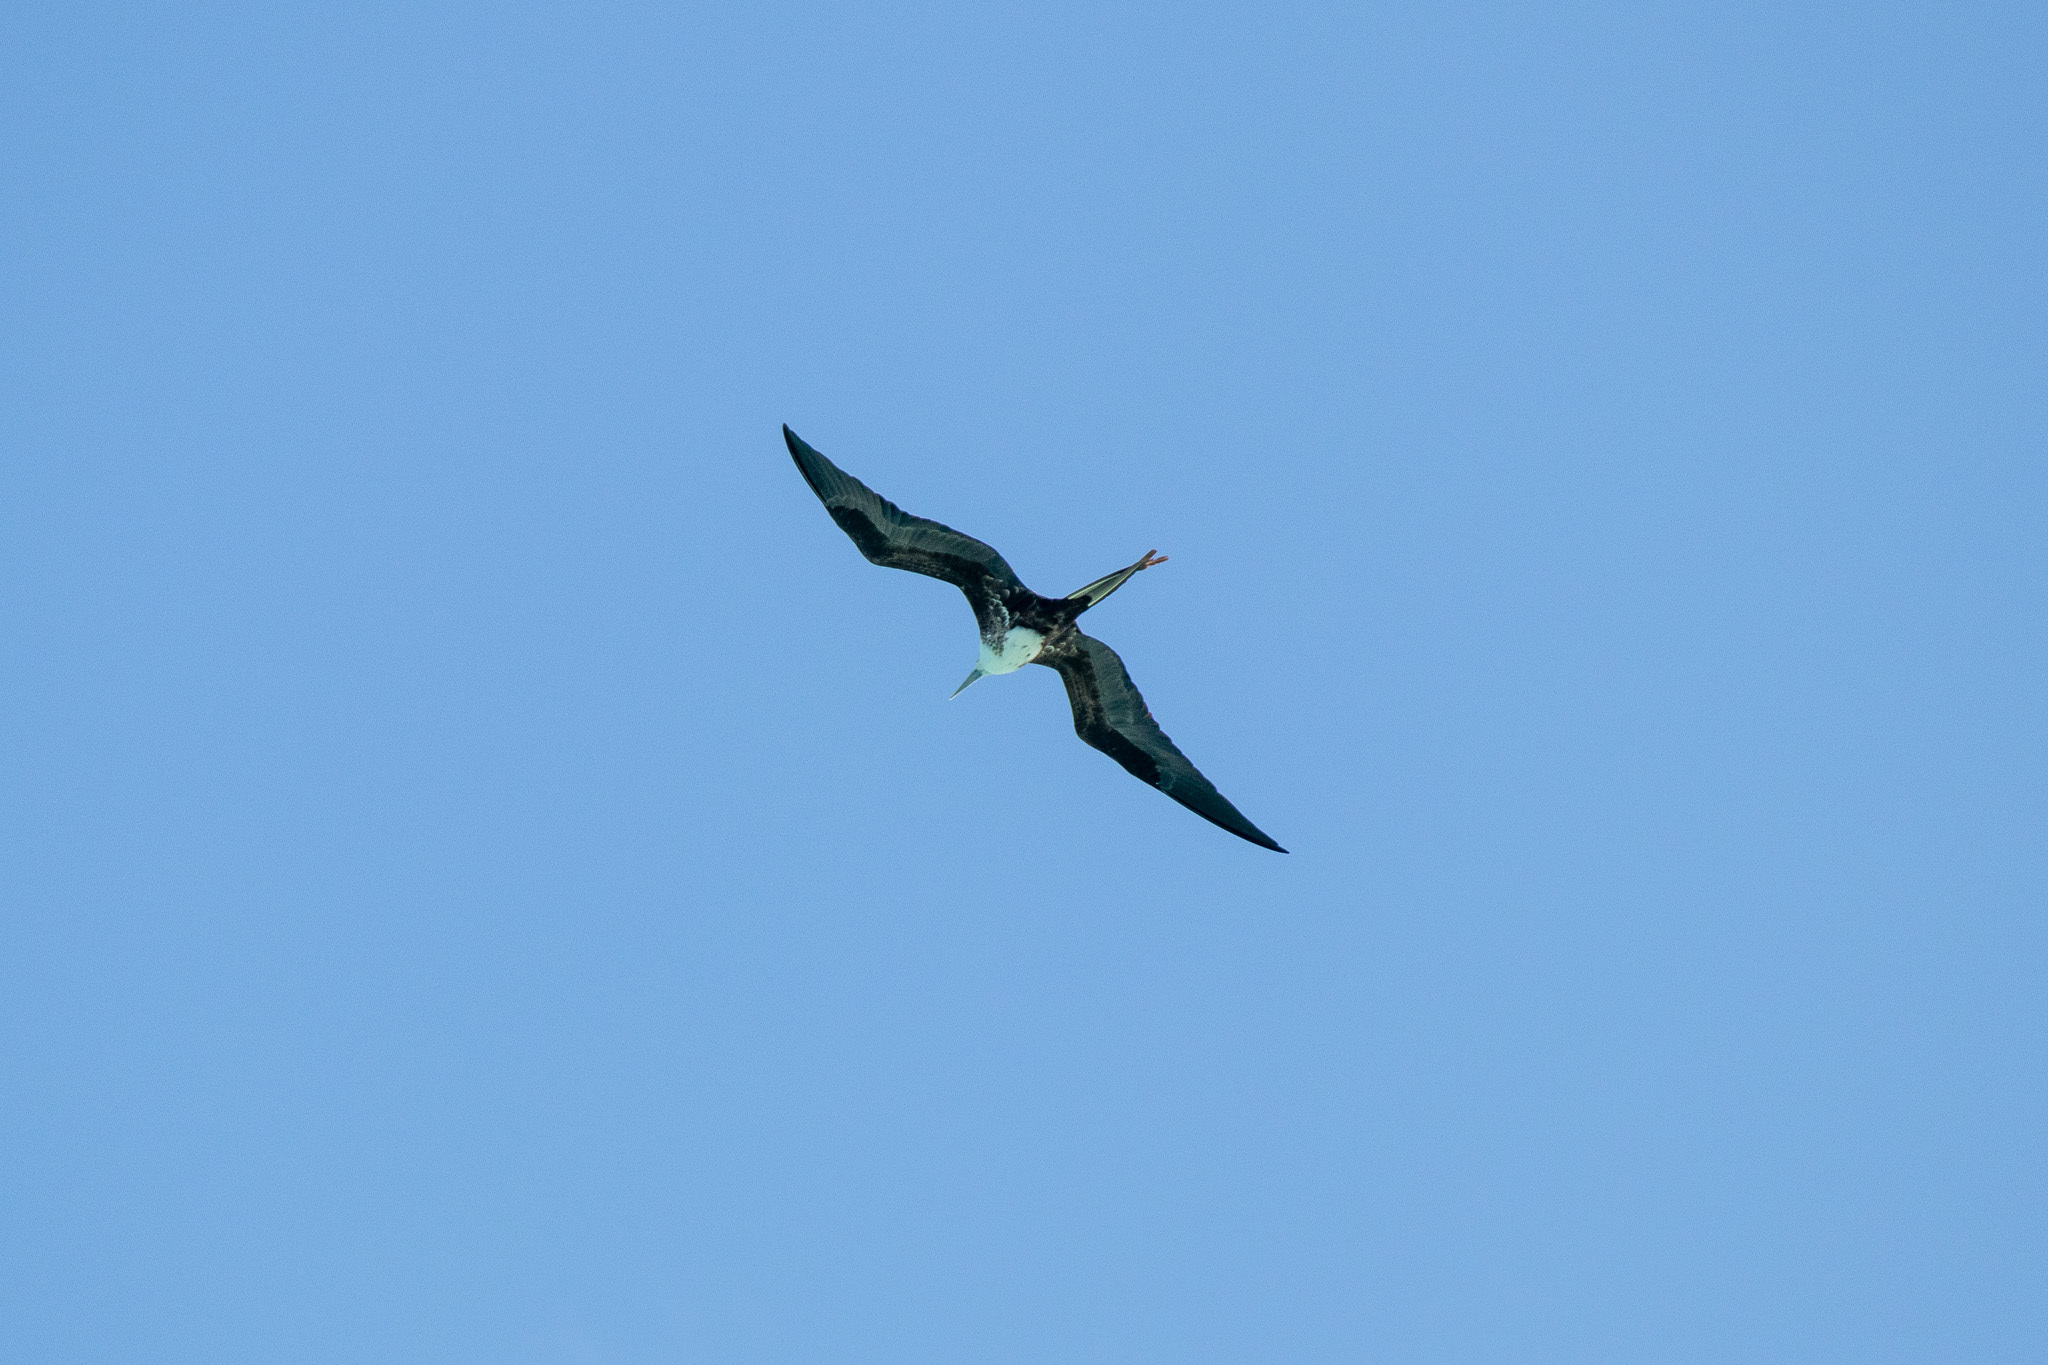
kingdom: Animalia
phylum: Chordata
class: Aves
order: Suliformes
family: Fregatidae
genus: Fregata
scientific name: Fregata magnificens
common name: Magnificent frigatebird
